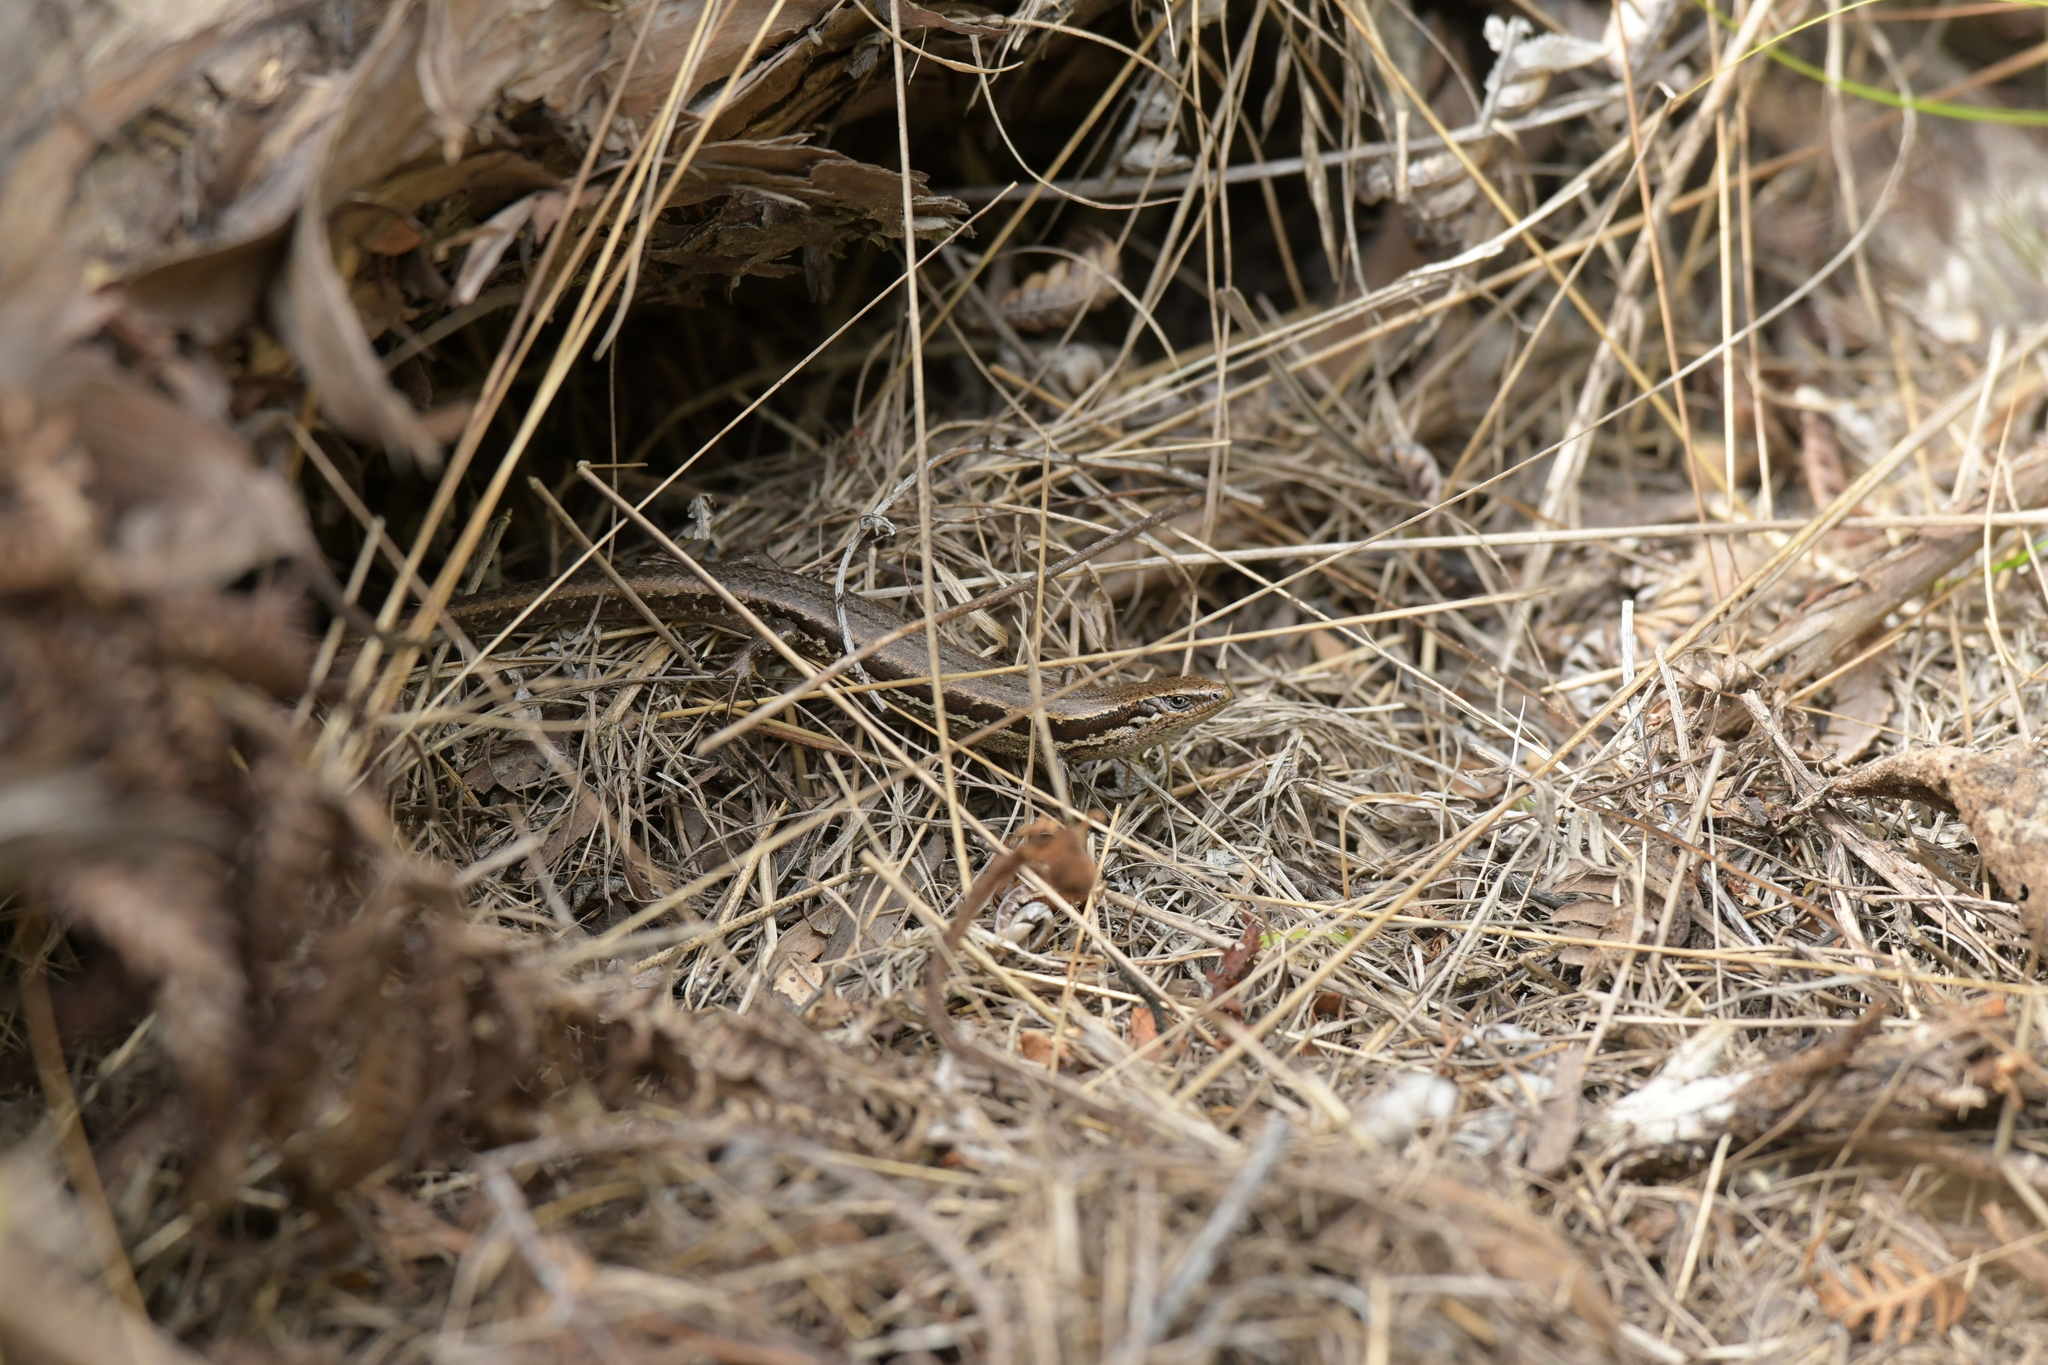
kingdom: Animalia
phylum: Chordata
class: Squamata
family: Scincidae
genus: Oligosoma
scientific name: Oligosoma polychroma
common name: Common new zealand skink
